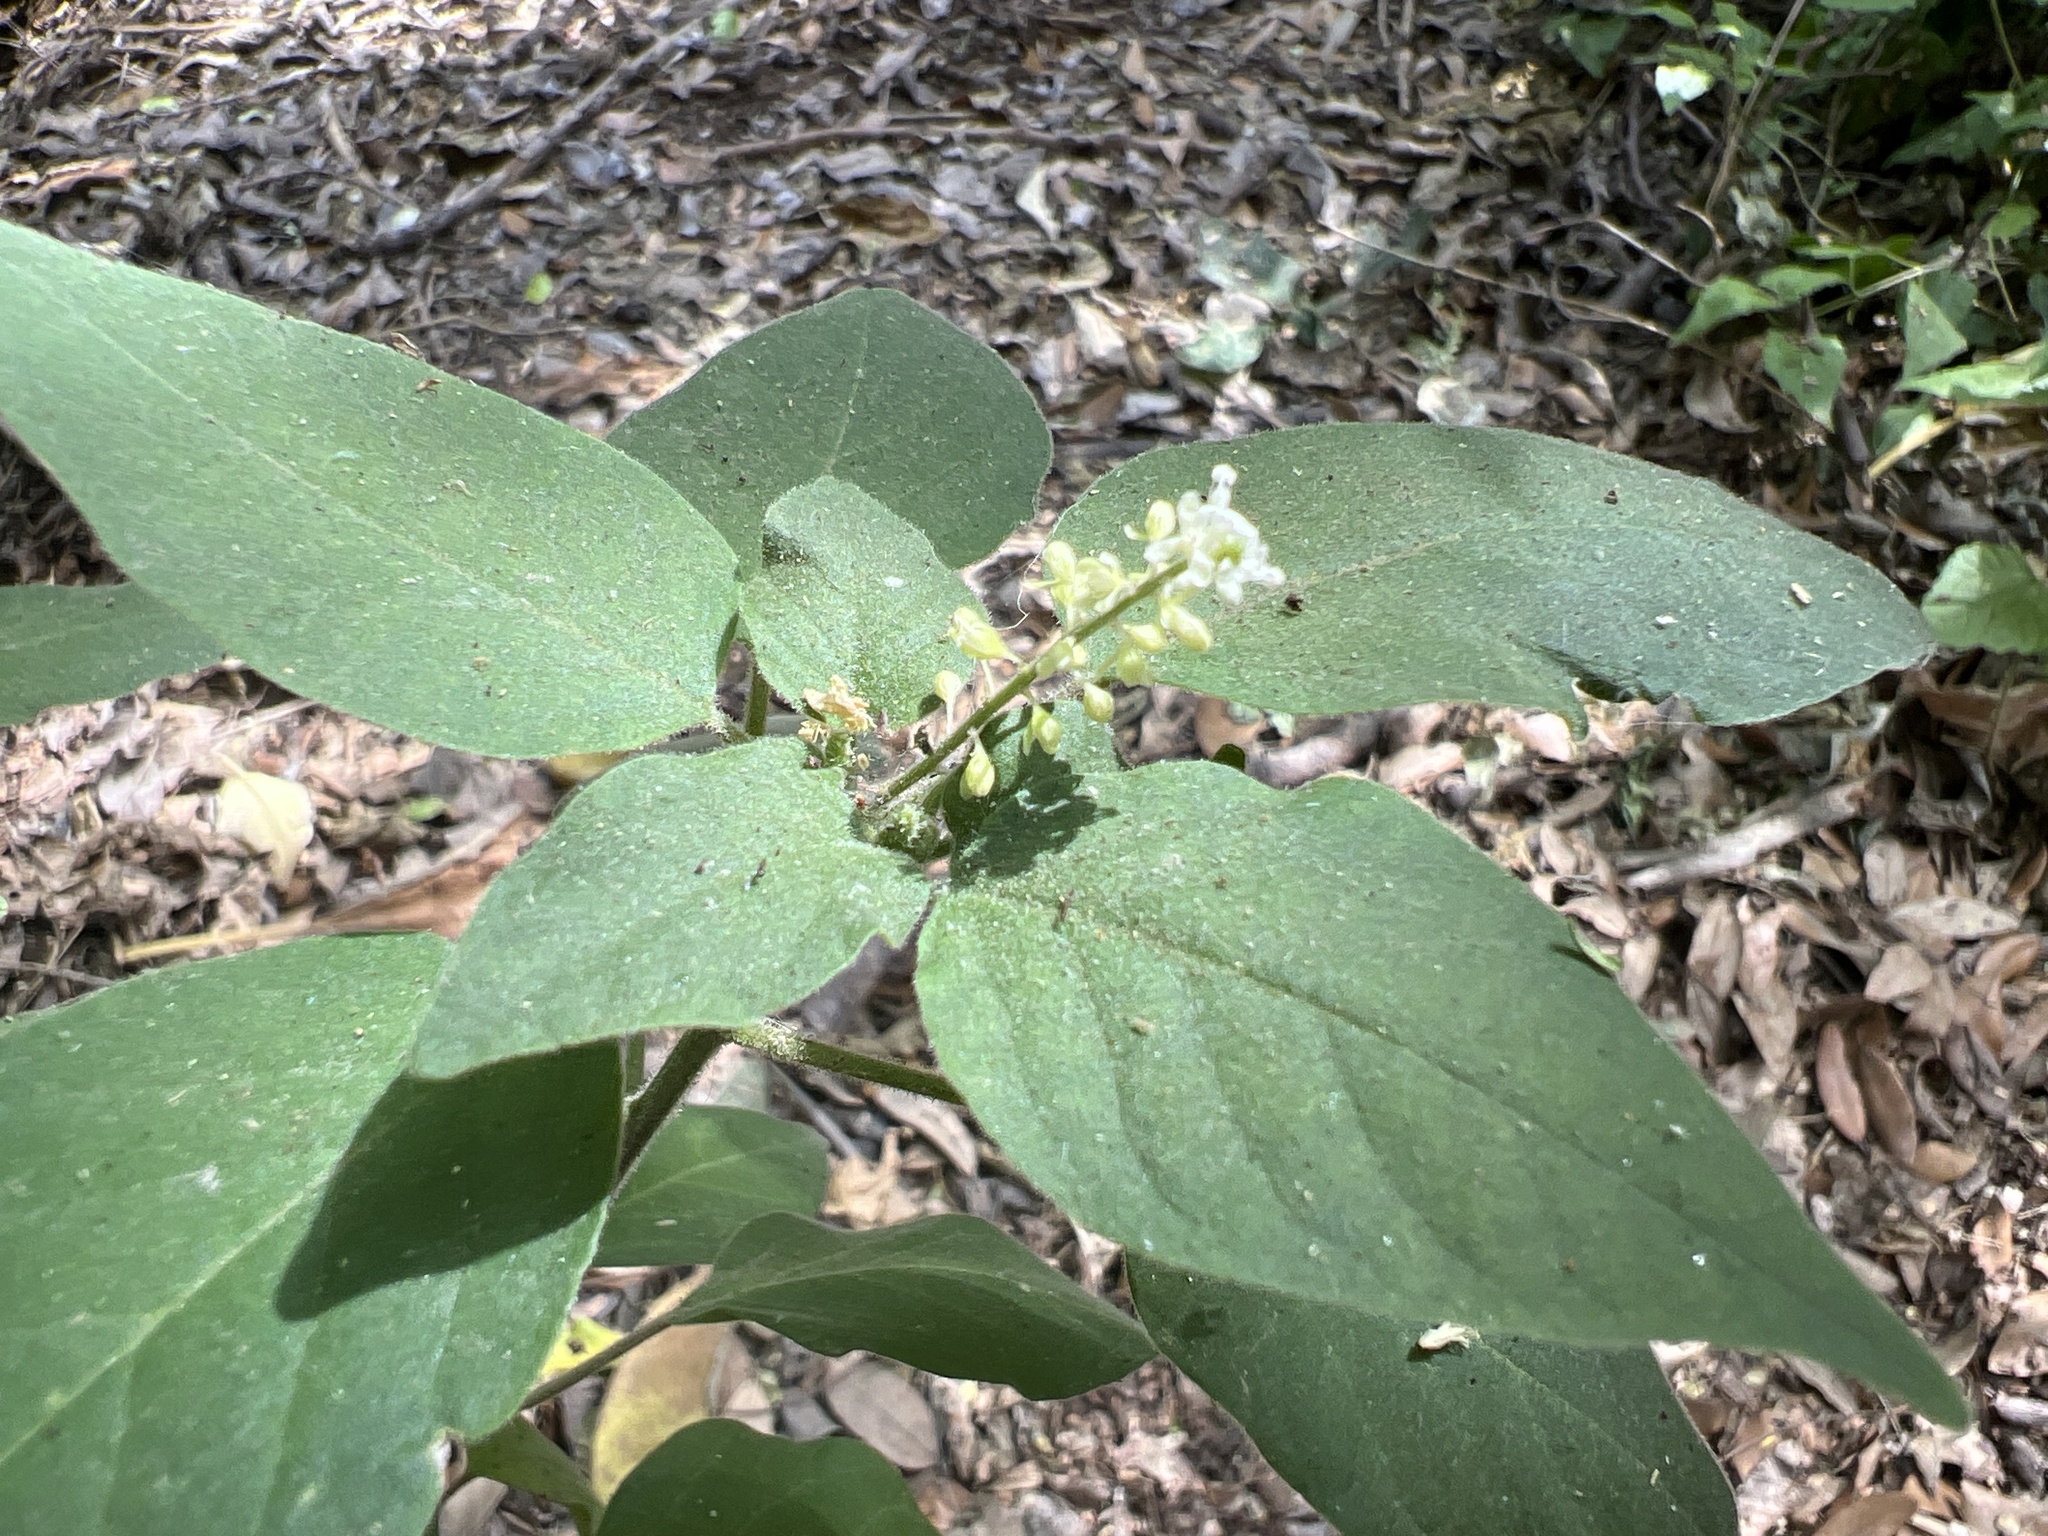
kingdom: Plantae
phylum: Tracheophyta
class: Magnoliopsida
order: Caryophyllales
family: Phytolaccaceae
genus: Rivina
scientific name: Rivina humilis
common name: Rougeplant
